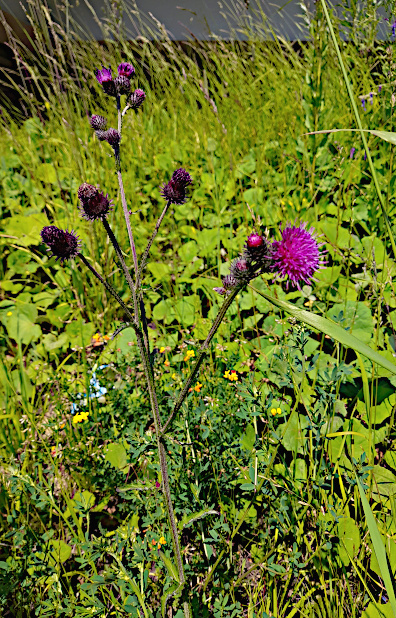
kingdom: Plantae
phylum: Tracheophyta
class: Magnoliopsida
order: Asterales
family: Asteraceae
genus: Cirsium
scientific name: Cirsium palustre
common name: Marsh thistle
